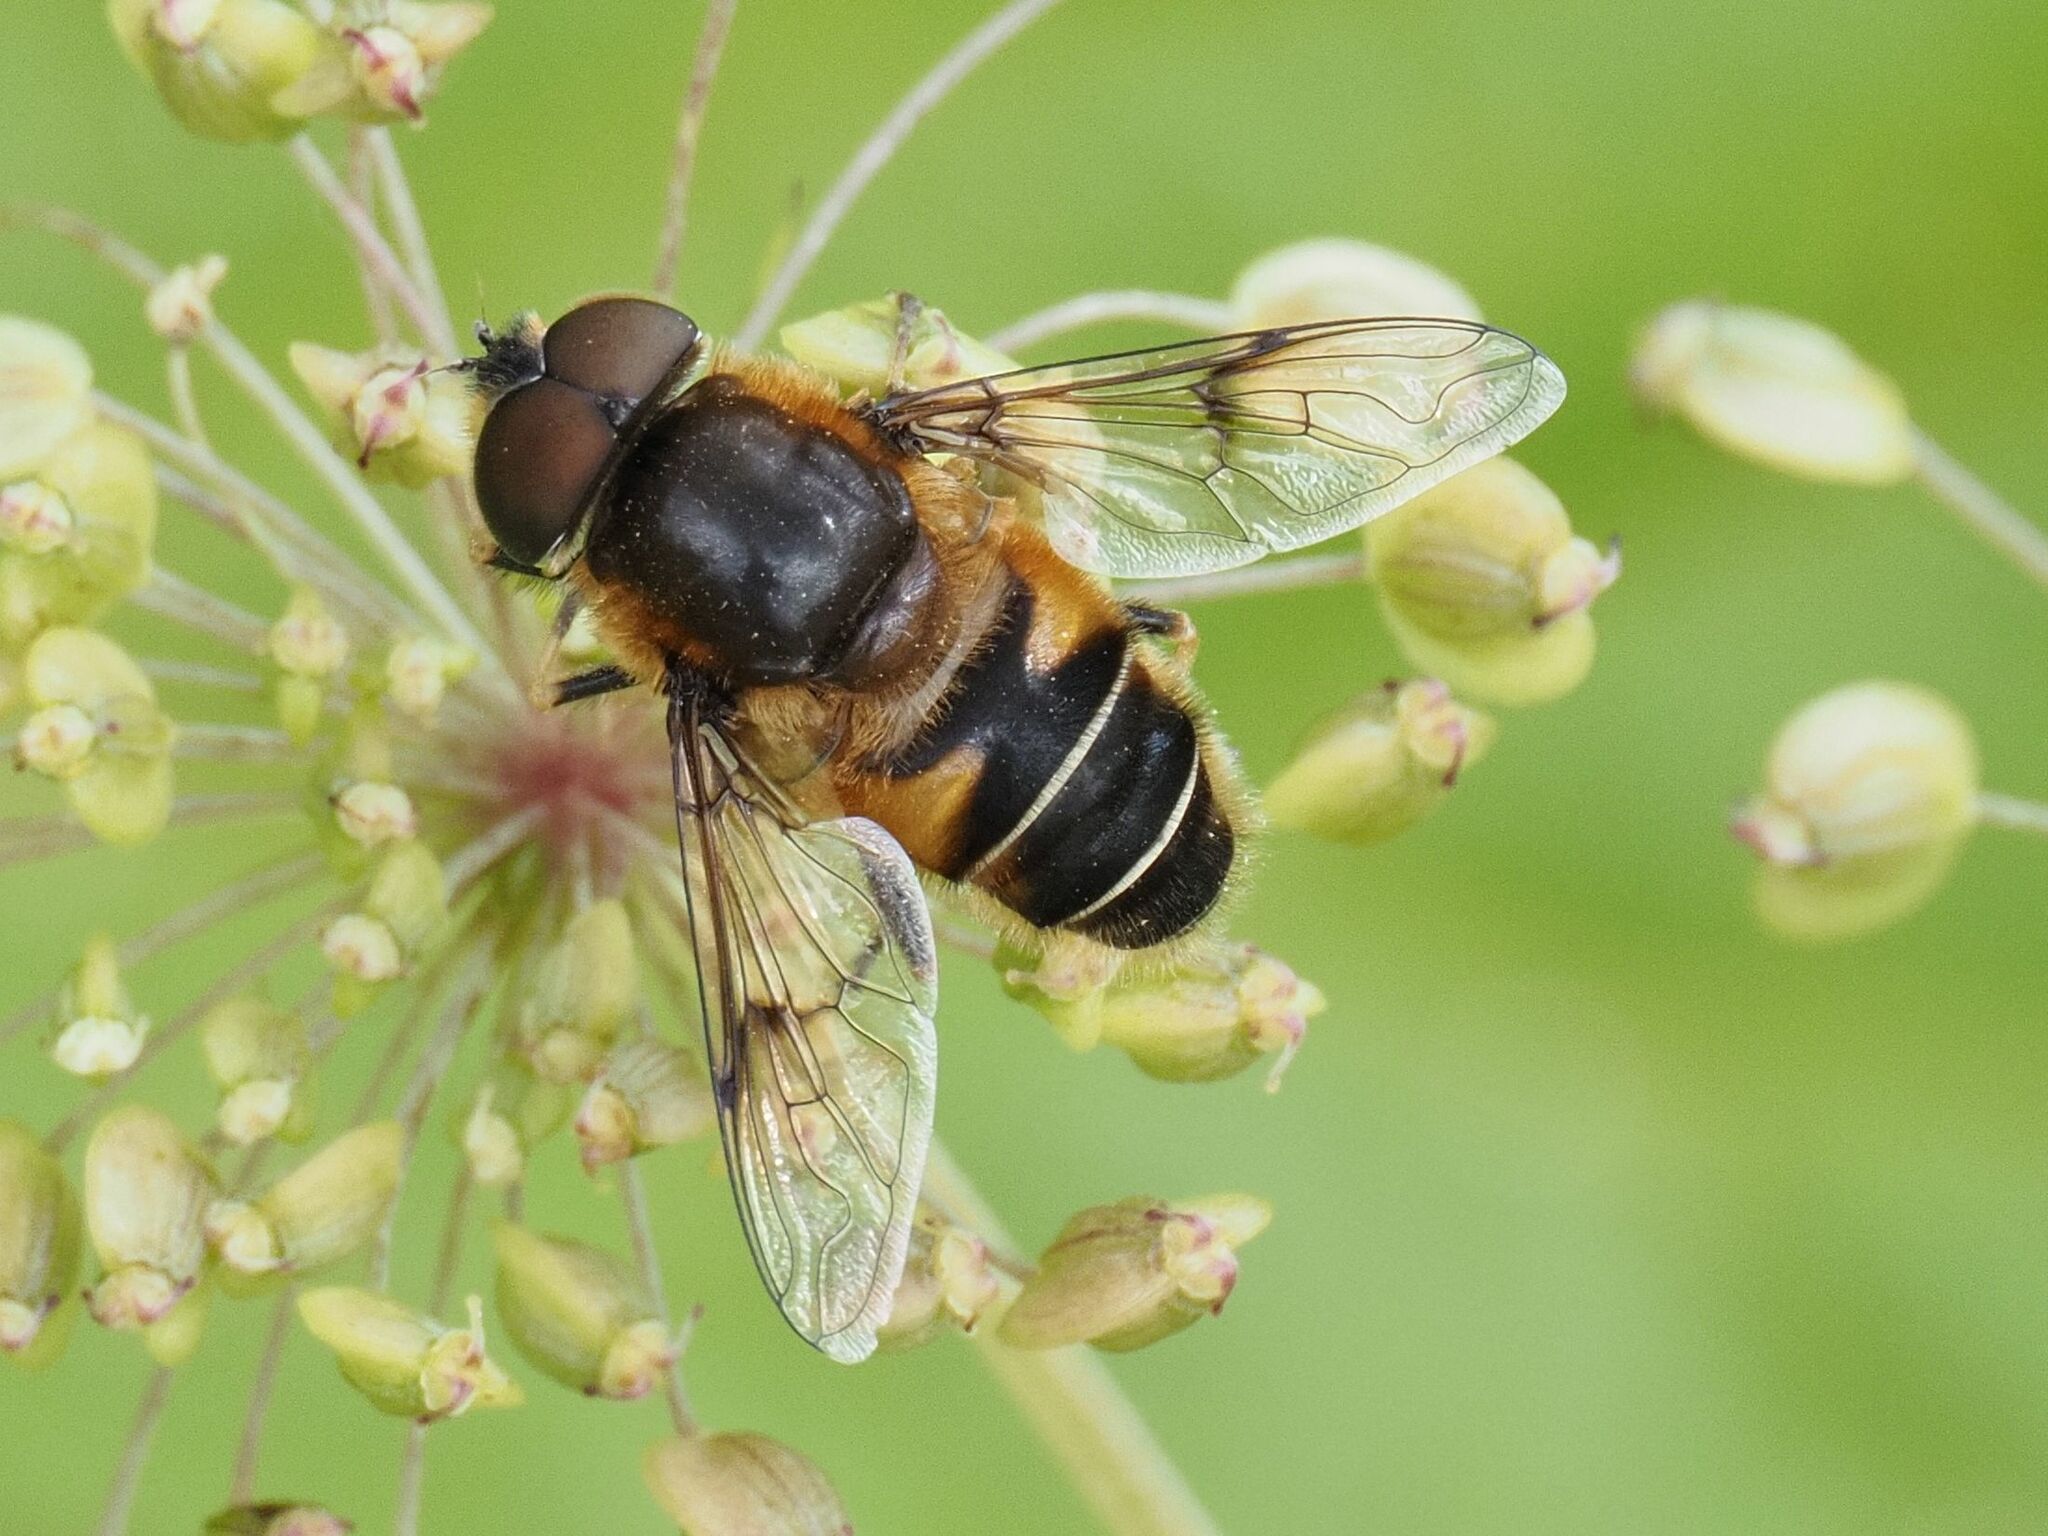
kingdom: Animalia
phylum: Arthropoda
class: Insecta
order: Diptera
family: Syrphidae
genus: Eristalis
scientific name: Eristalis rupium
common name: Hover fly
